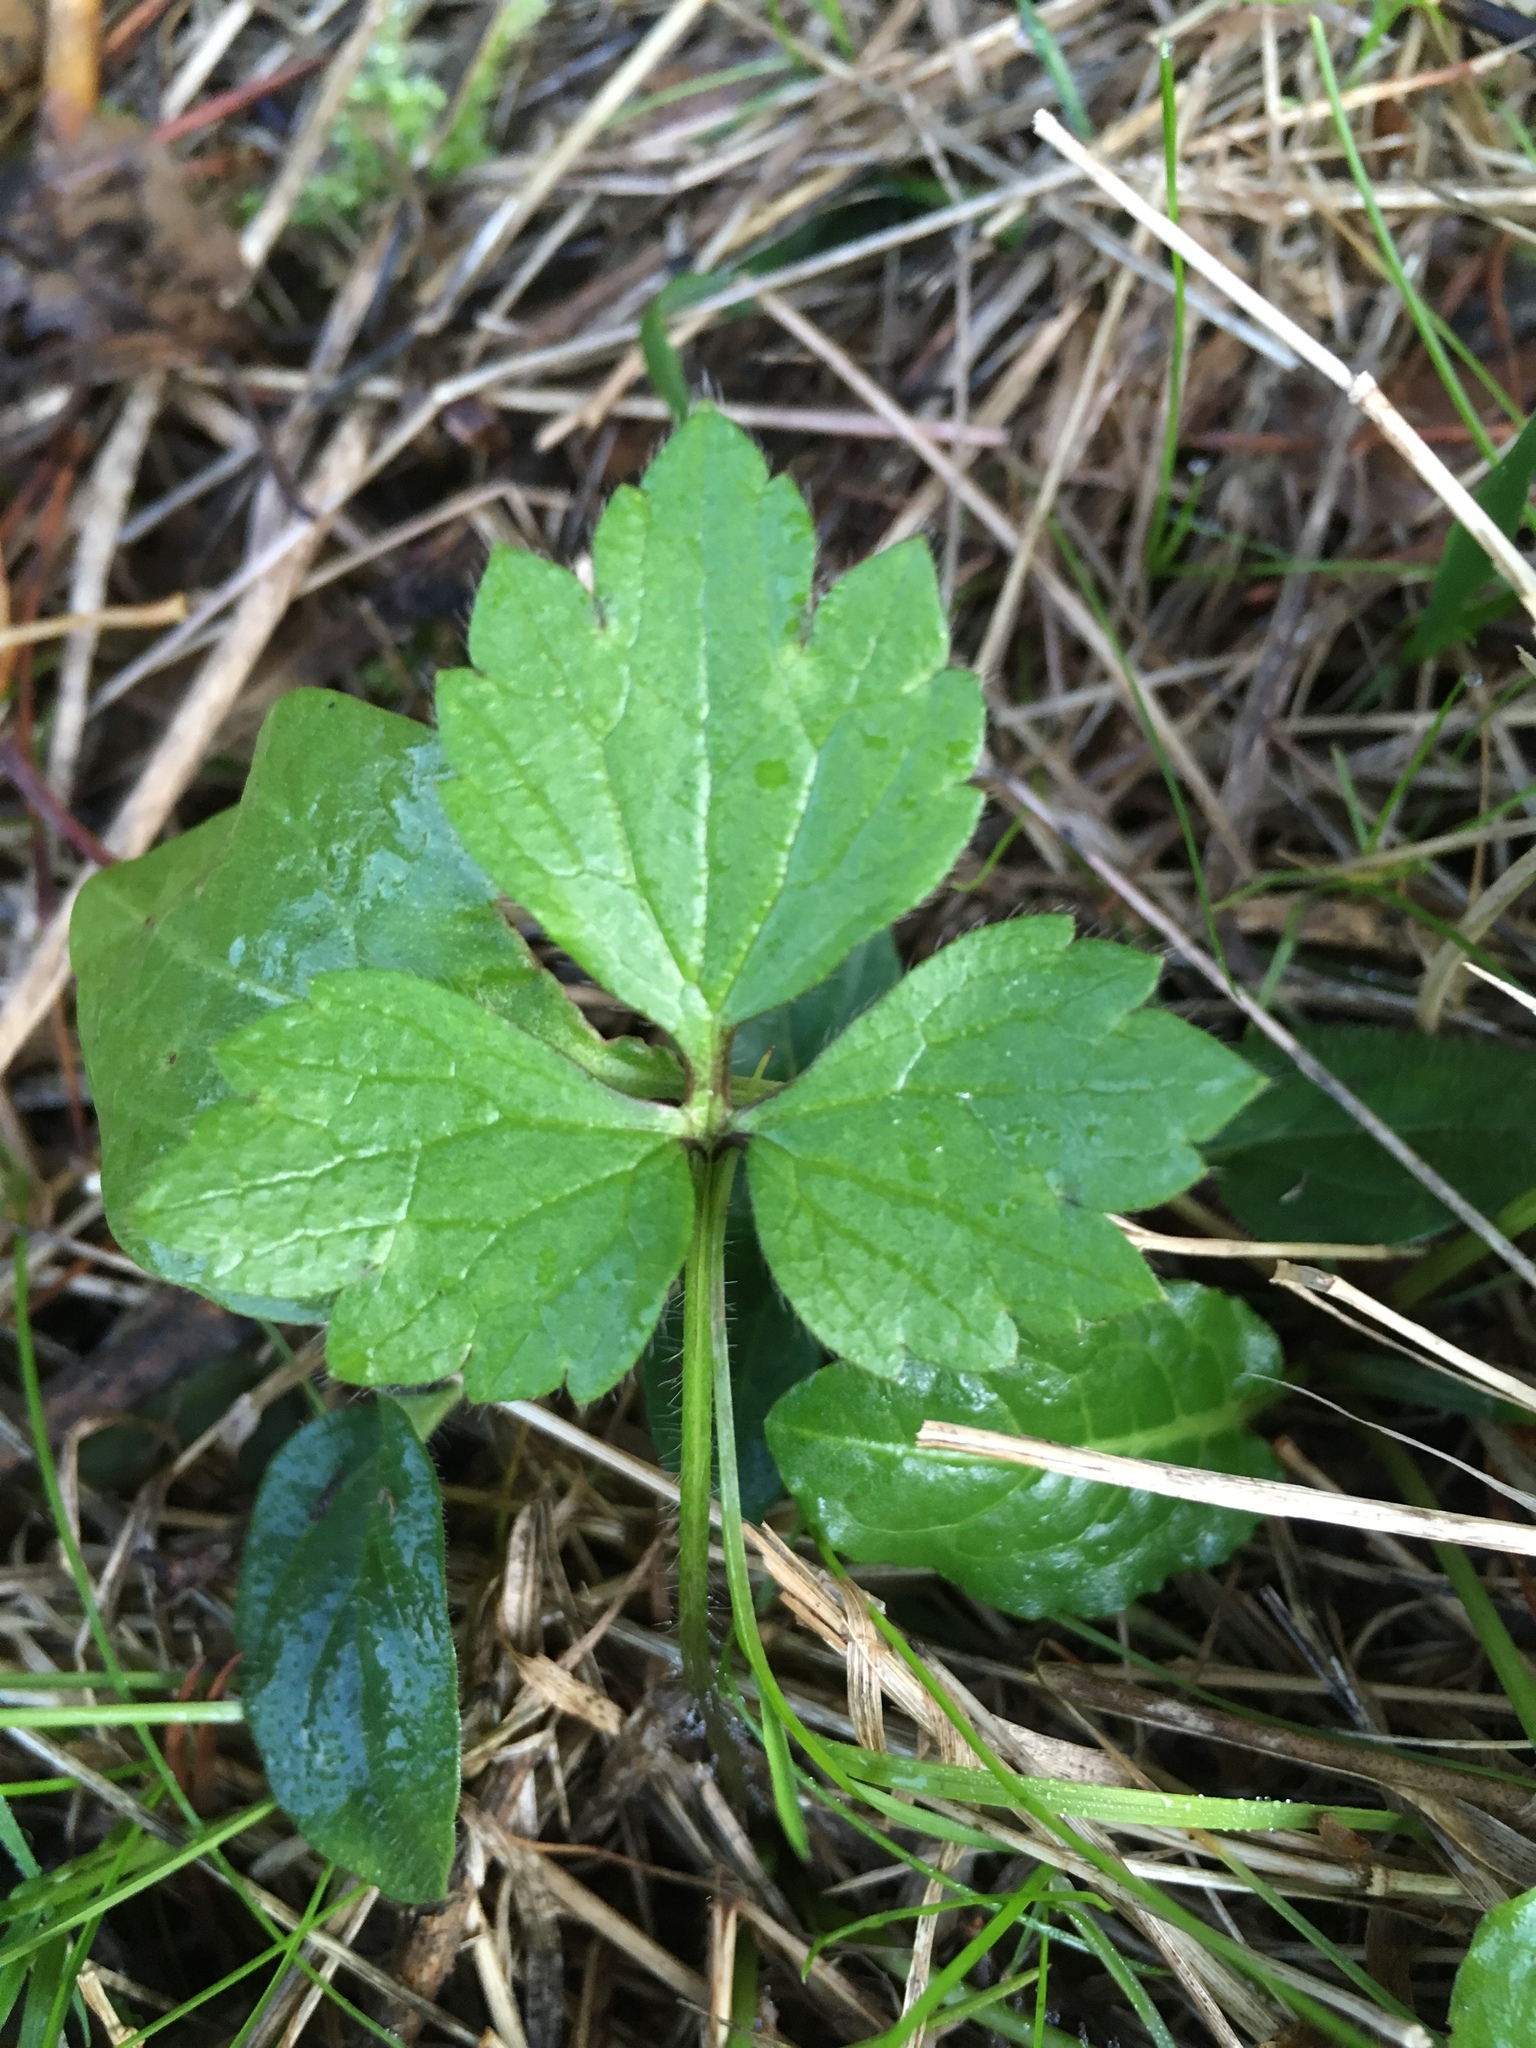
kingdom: Plantae
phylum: Tracheophyta
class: Magnoliopsida
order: Ranunculales
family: Ranunculaceae
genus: Ranunculus
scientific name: Ranunculus repens
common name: Creeping buttercup
